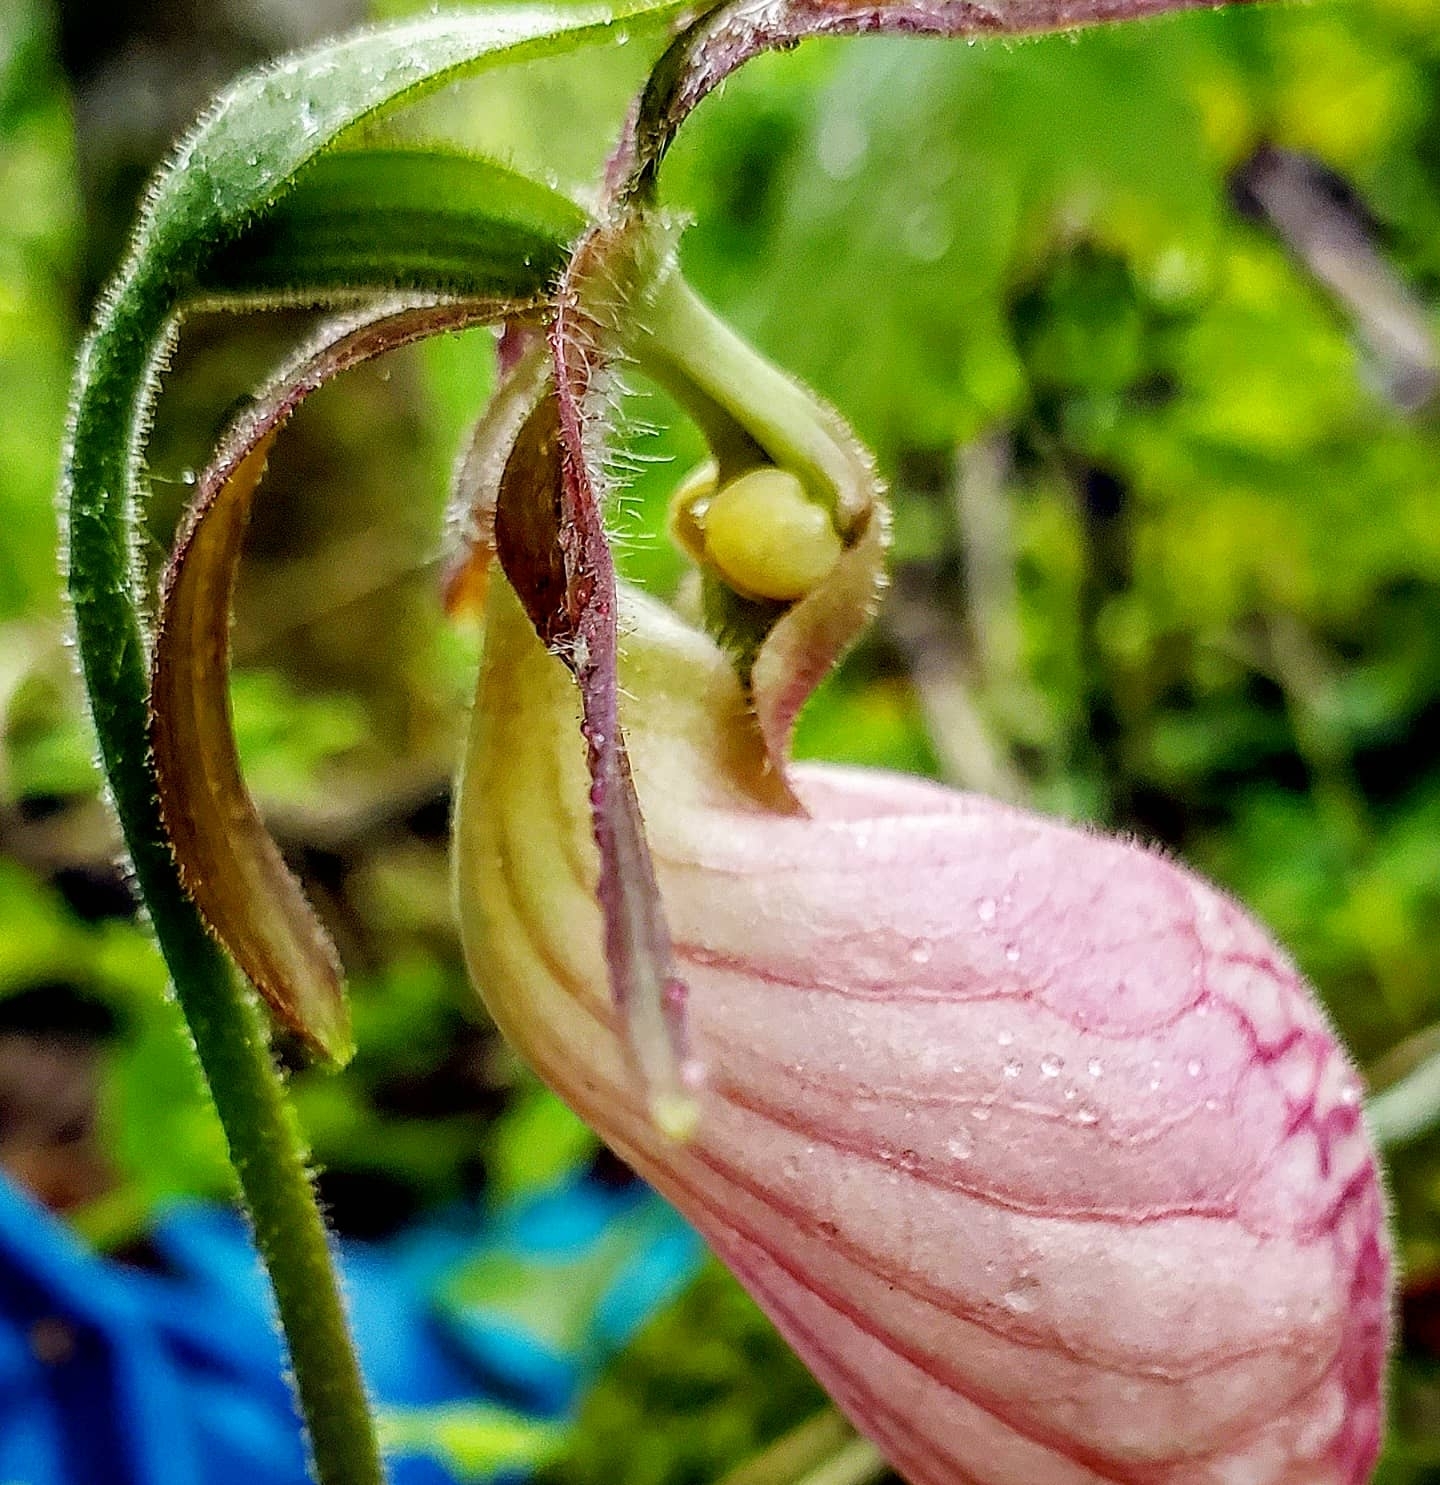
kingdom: Plantae
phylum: Tracheophyta
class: Liliopsida
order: Asparagales
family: Orchidaceae
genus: Cypripedium
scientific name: Cypripedium acaule
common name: Pink lady's-slipper
